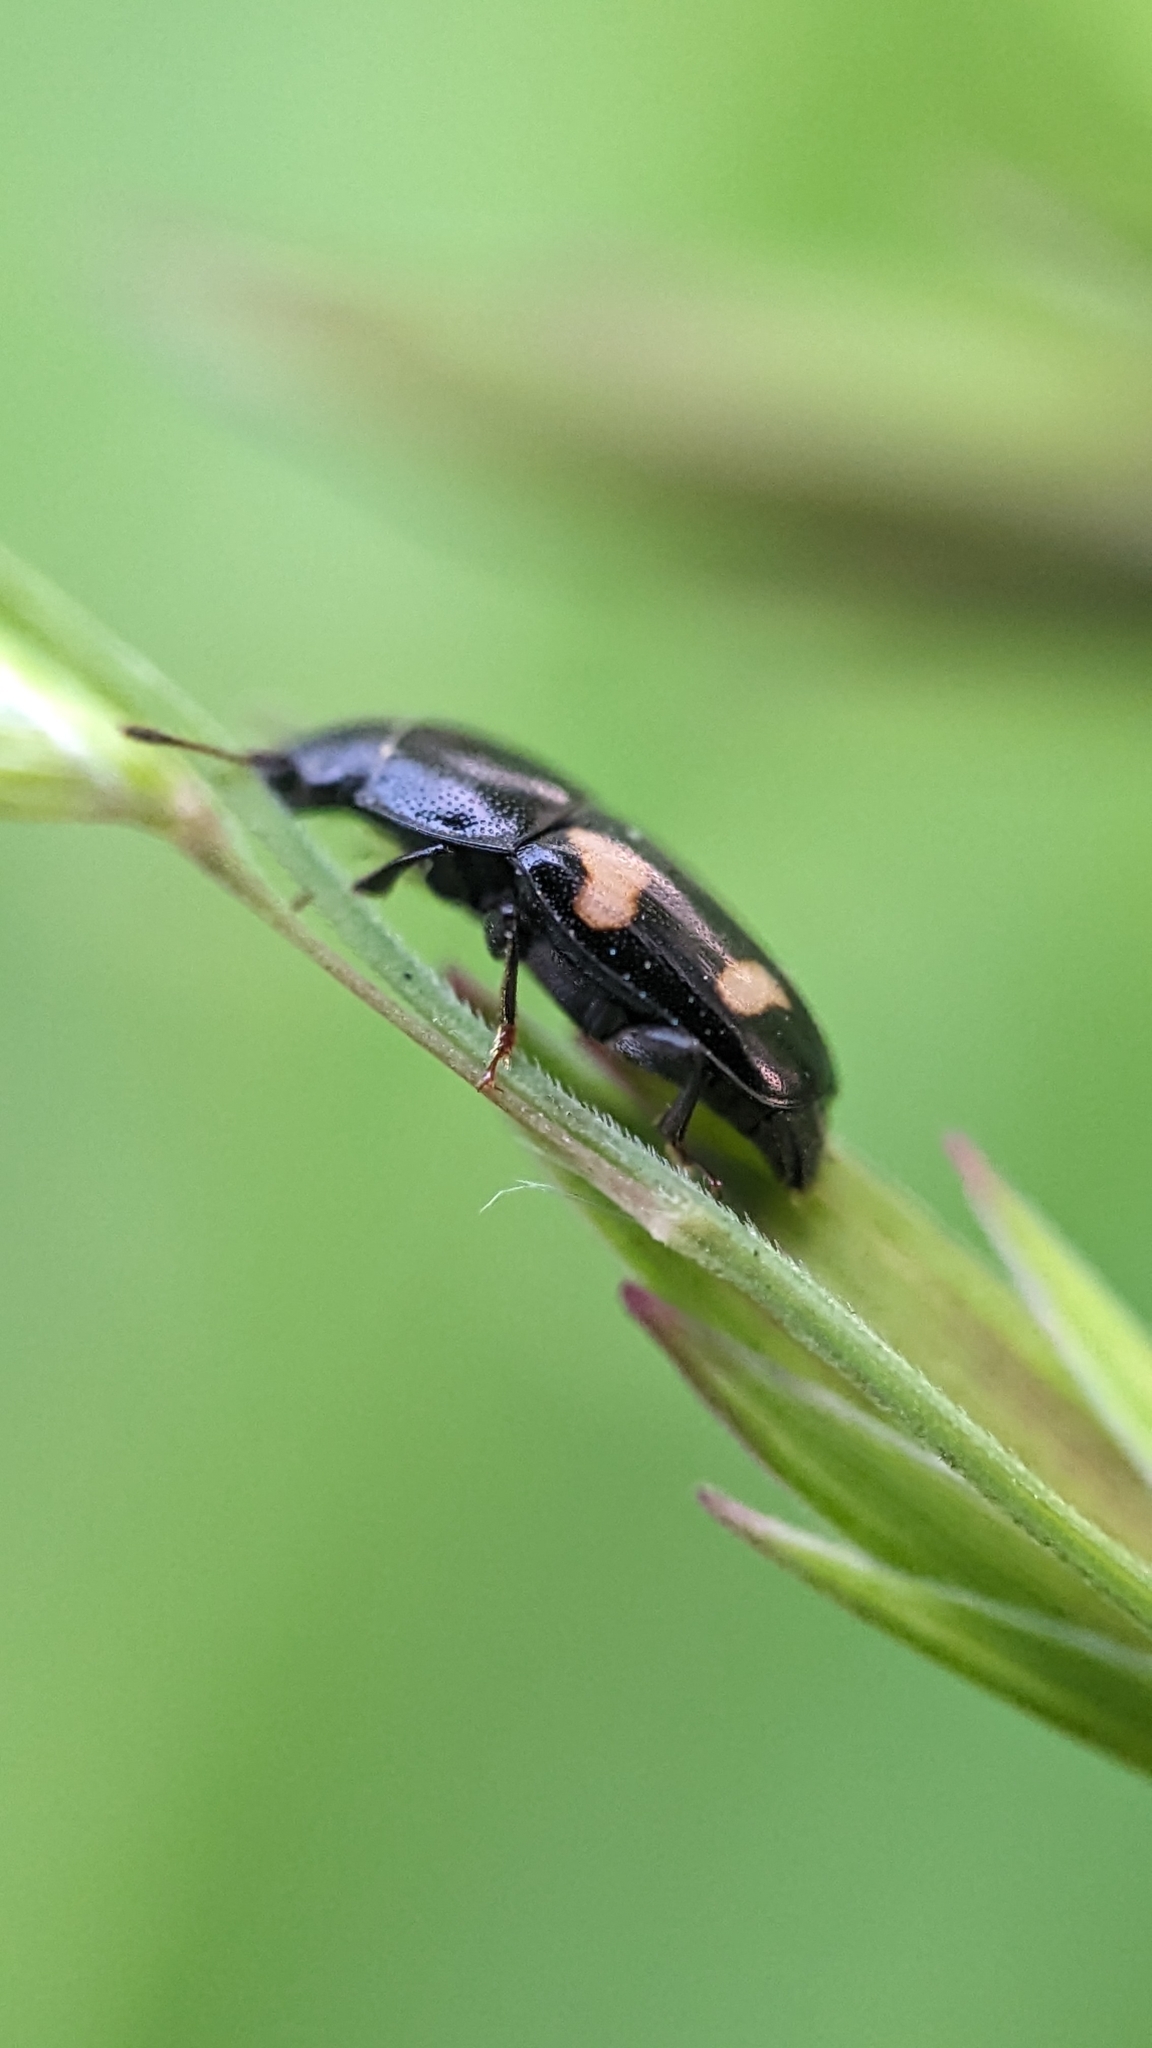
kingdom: Animalia
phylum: Arthropoda
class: Insecta
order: Coleoptera
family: Nitidulidae
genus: Glischrochilus
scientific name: Glischrochilus quadrisignatus
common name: Picnic beetle
